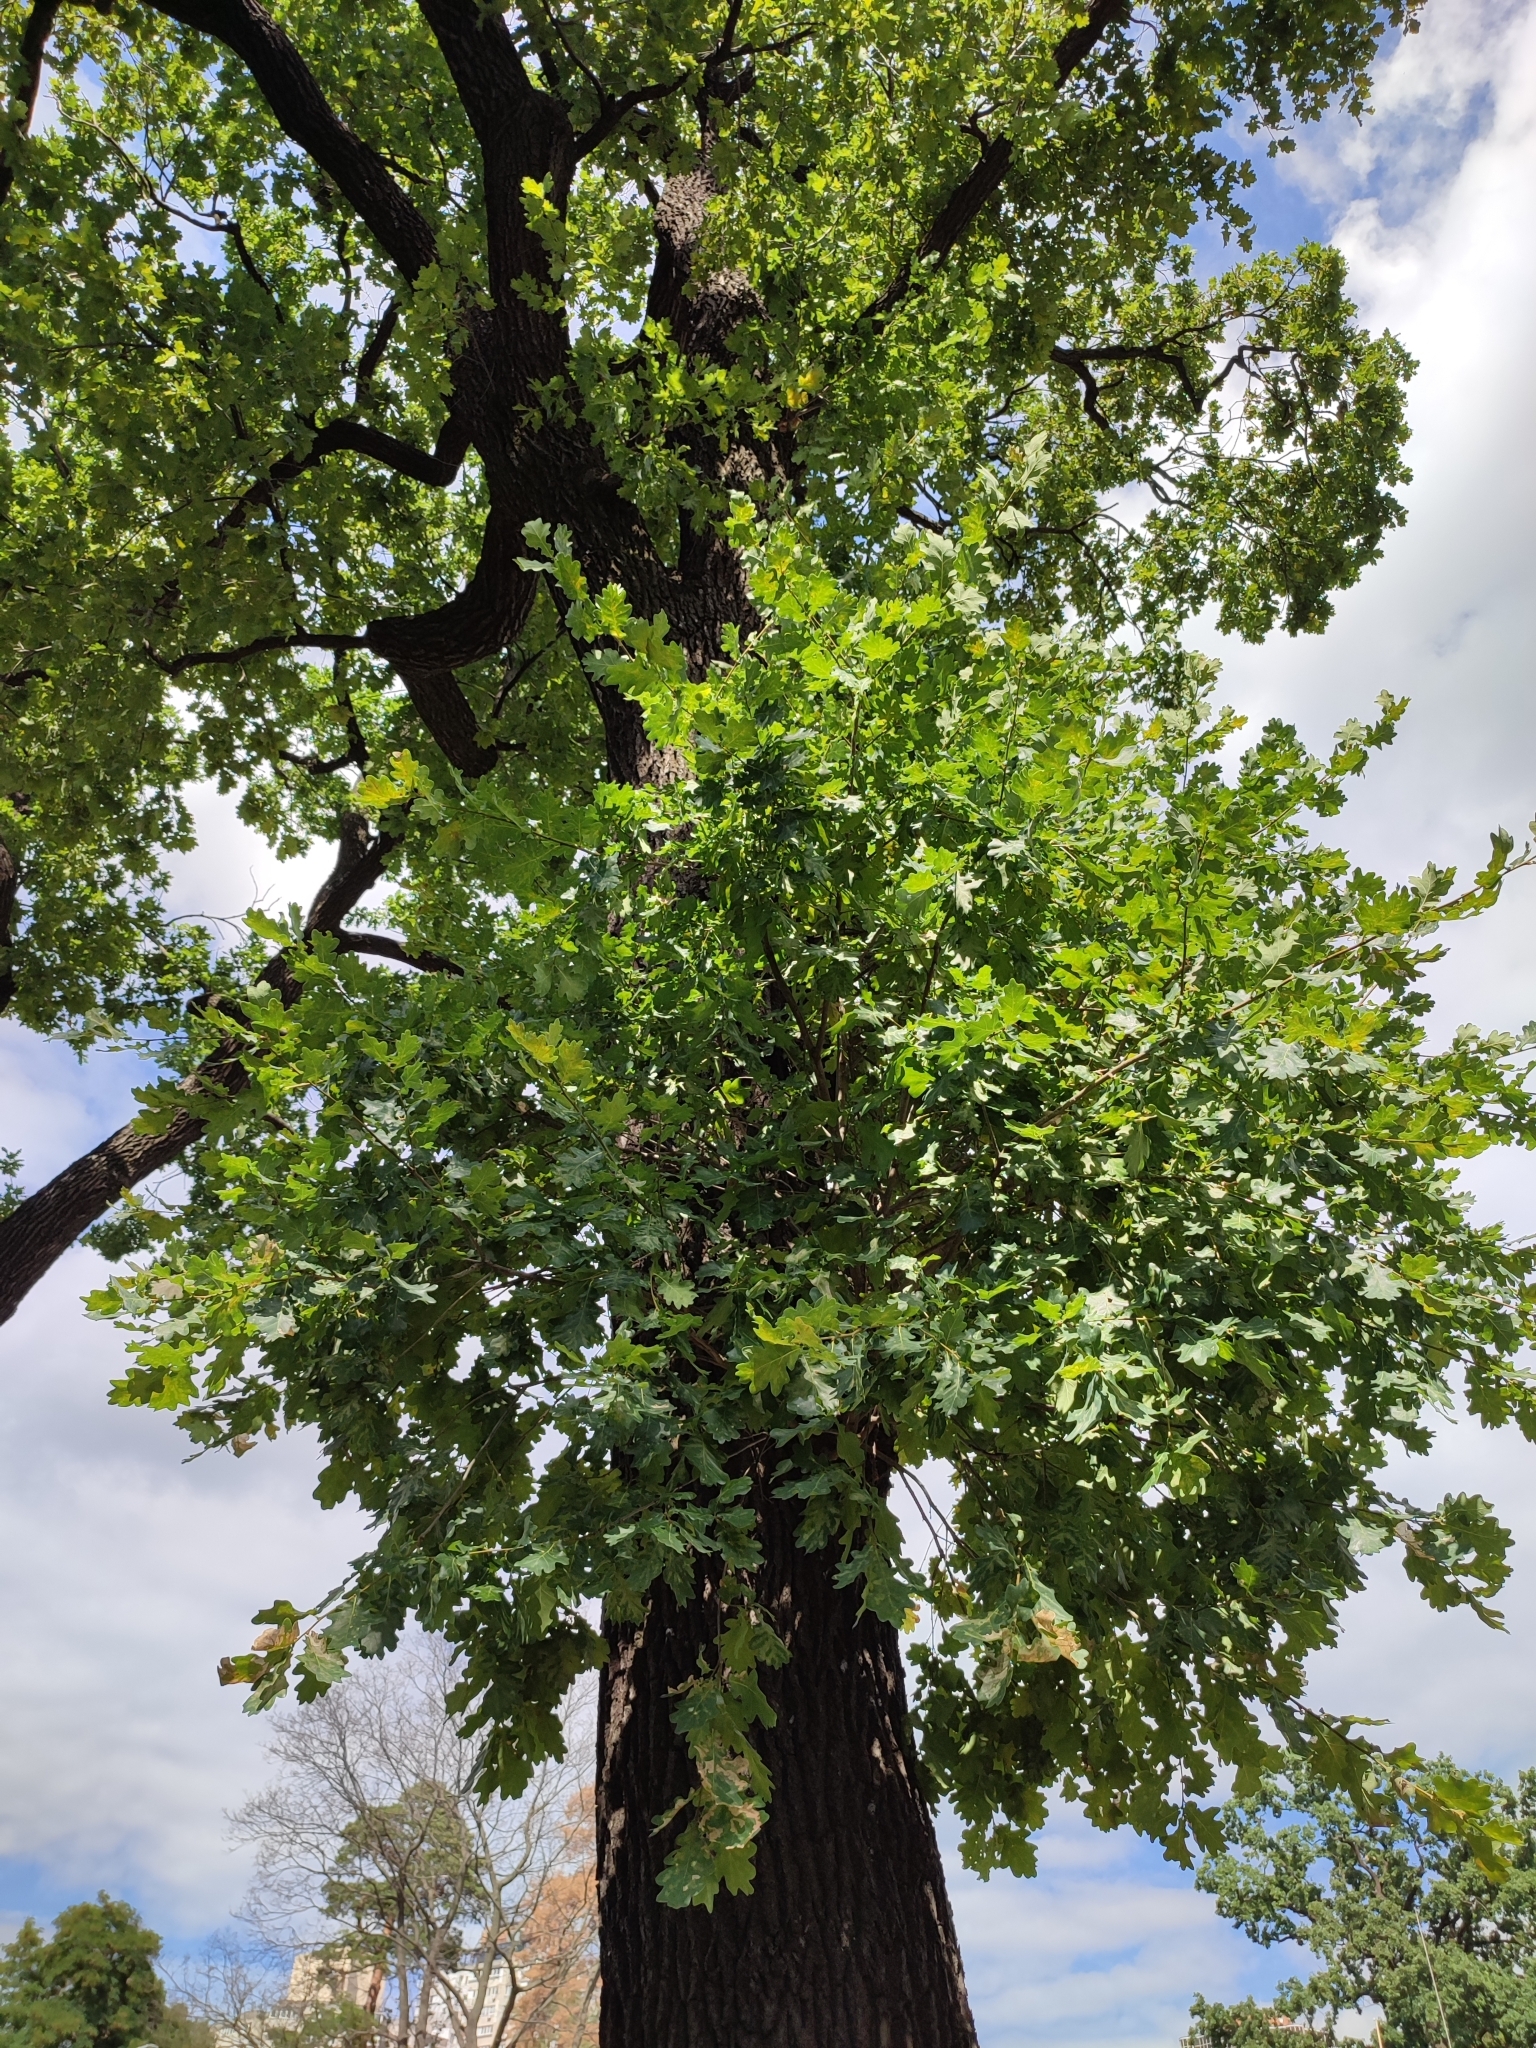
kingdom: Plantae
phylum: Tracheophyta
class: Magnoliopsida
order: Fagales
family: Fagaceae
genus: Quercus
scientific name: Quercus robur
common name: Pedunculate oak
